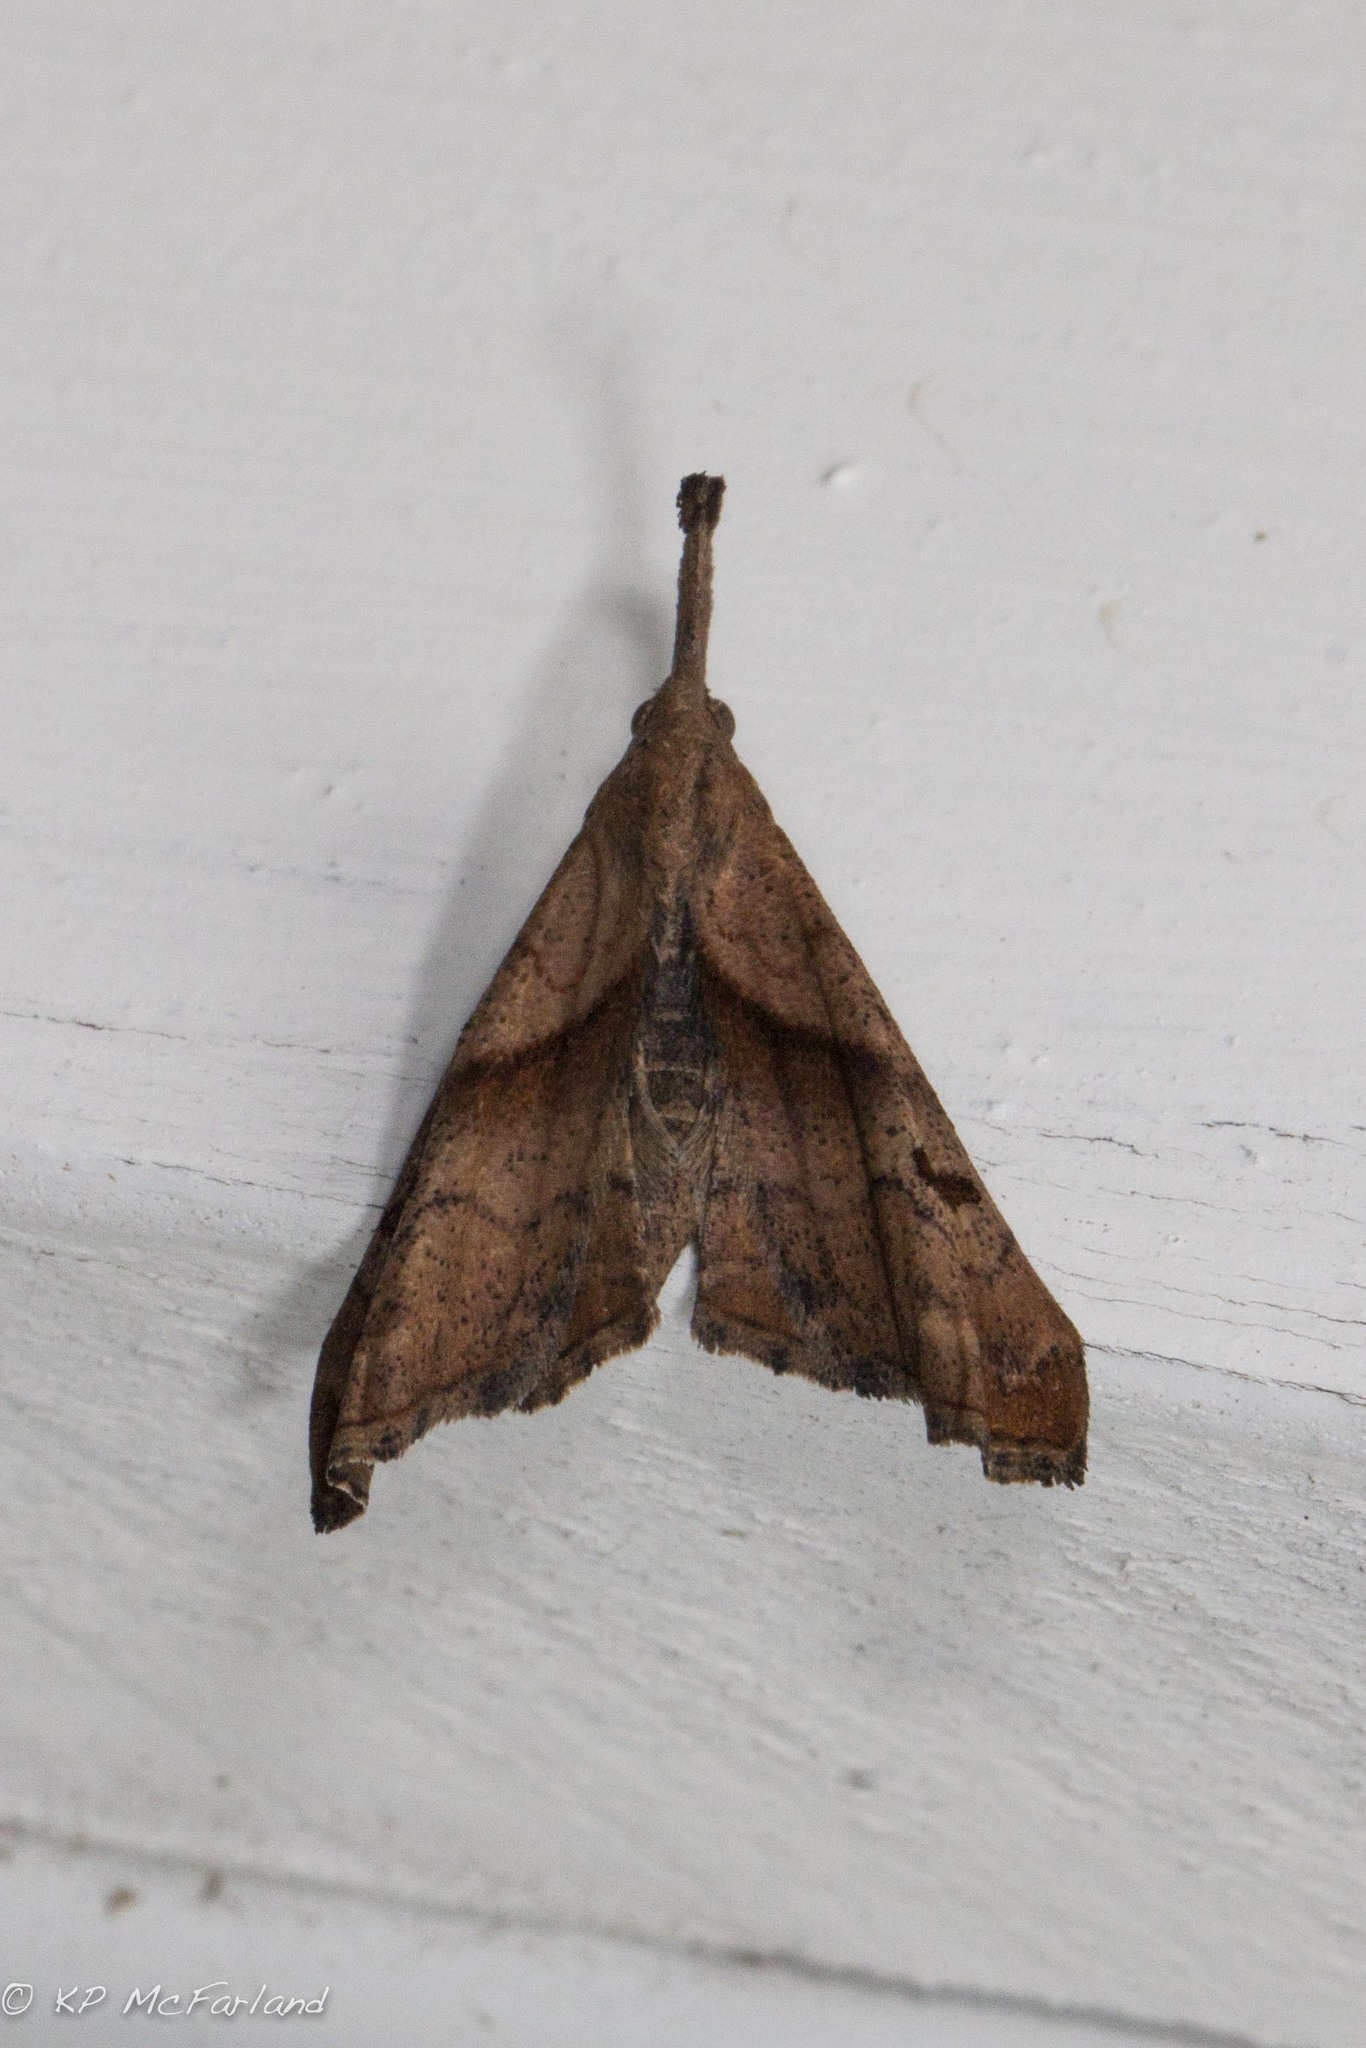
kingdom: Animalia
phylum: Arthropoda
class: Insecta
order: Lepidoptera
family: Erebidae
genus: Palthis
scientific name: Palthis angulalis
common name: Dark-spotted palthis moth
